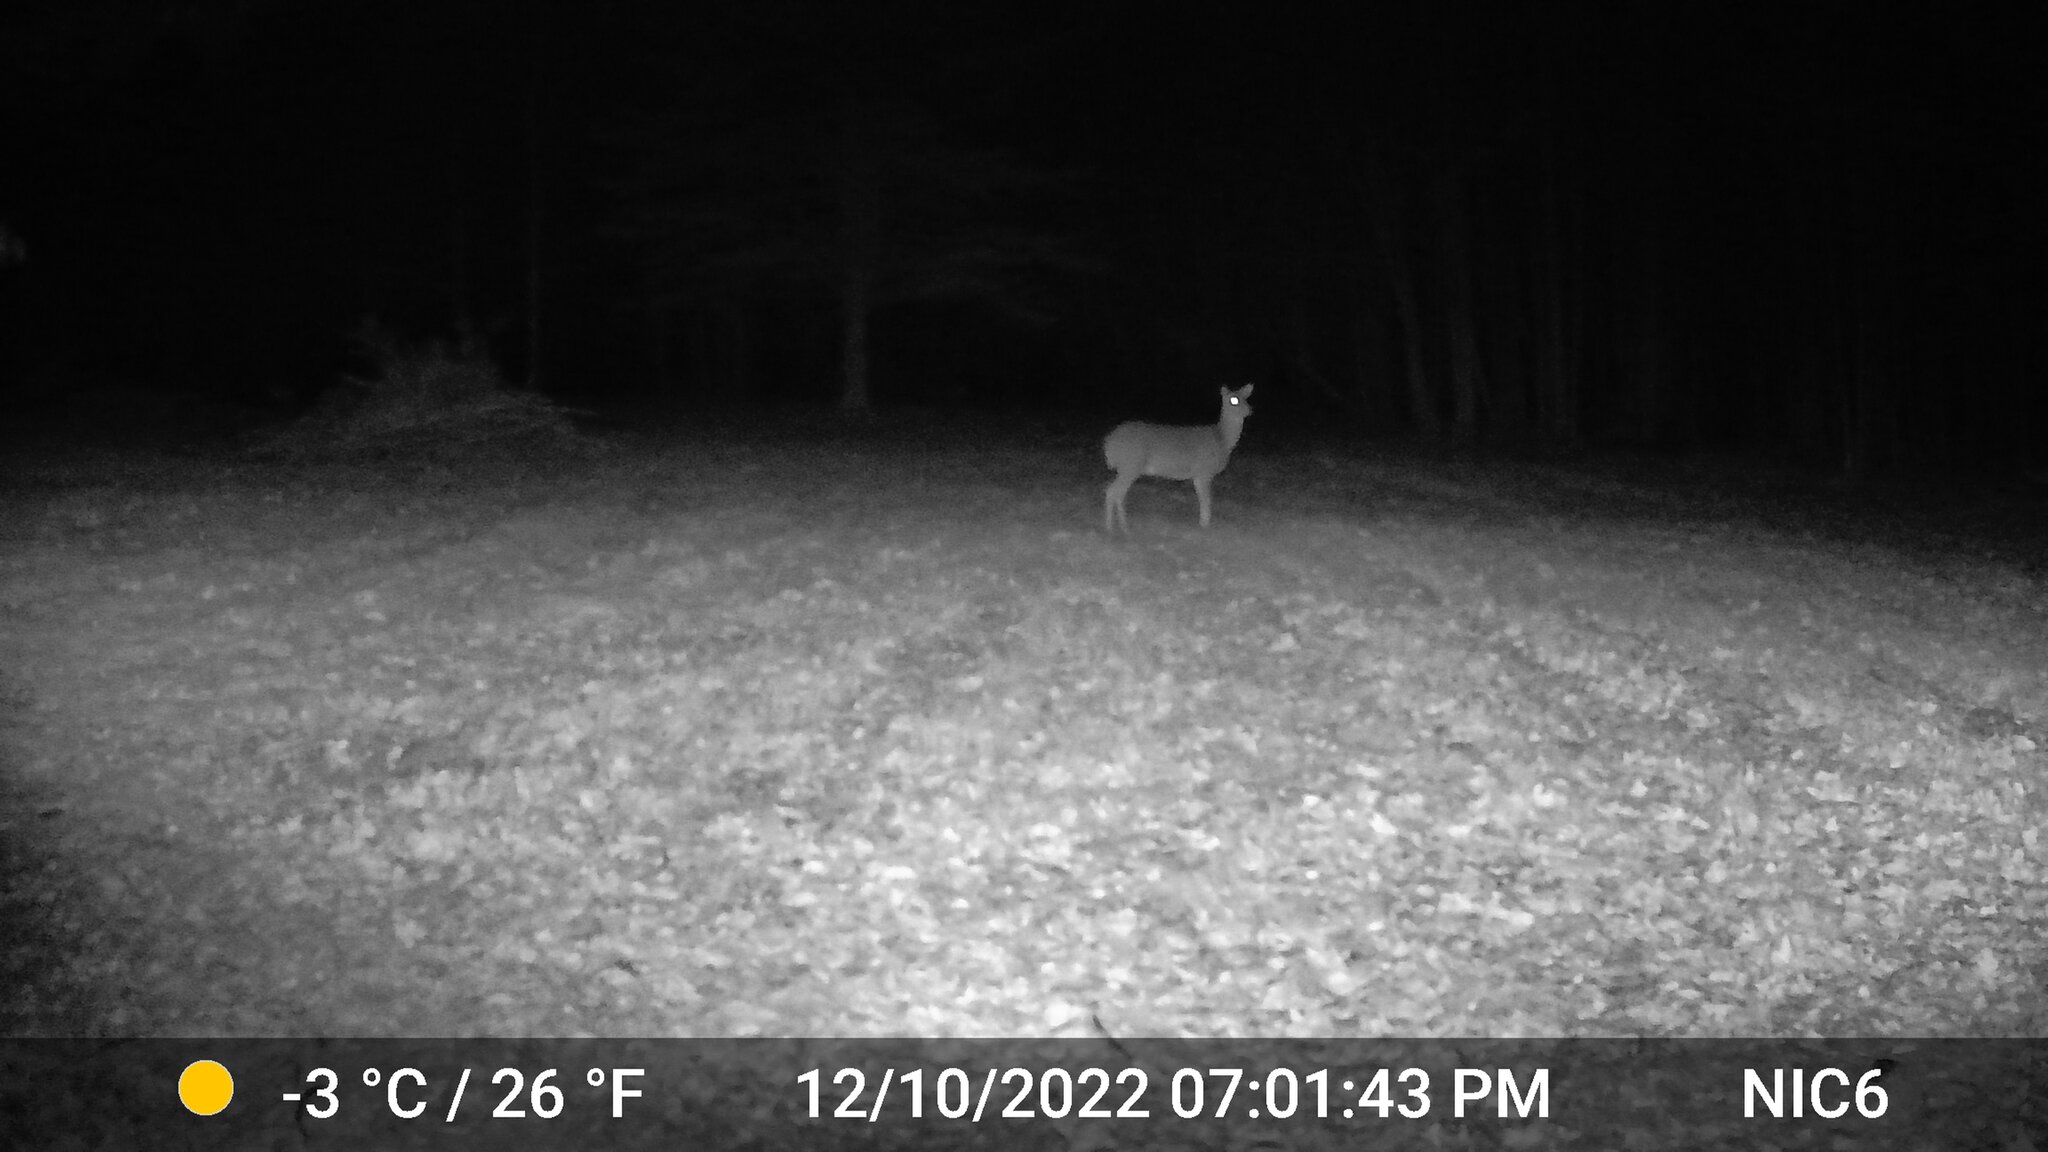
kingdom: Animalia
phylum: Chordata
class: Mammalia
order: Artiodactyla
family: Cervidae
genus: Odocoileus
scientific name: Odocoileus virginianus
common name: White-tailed deer
